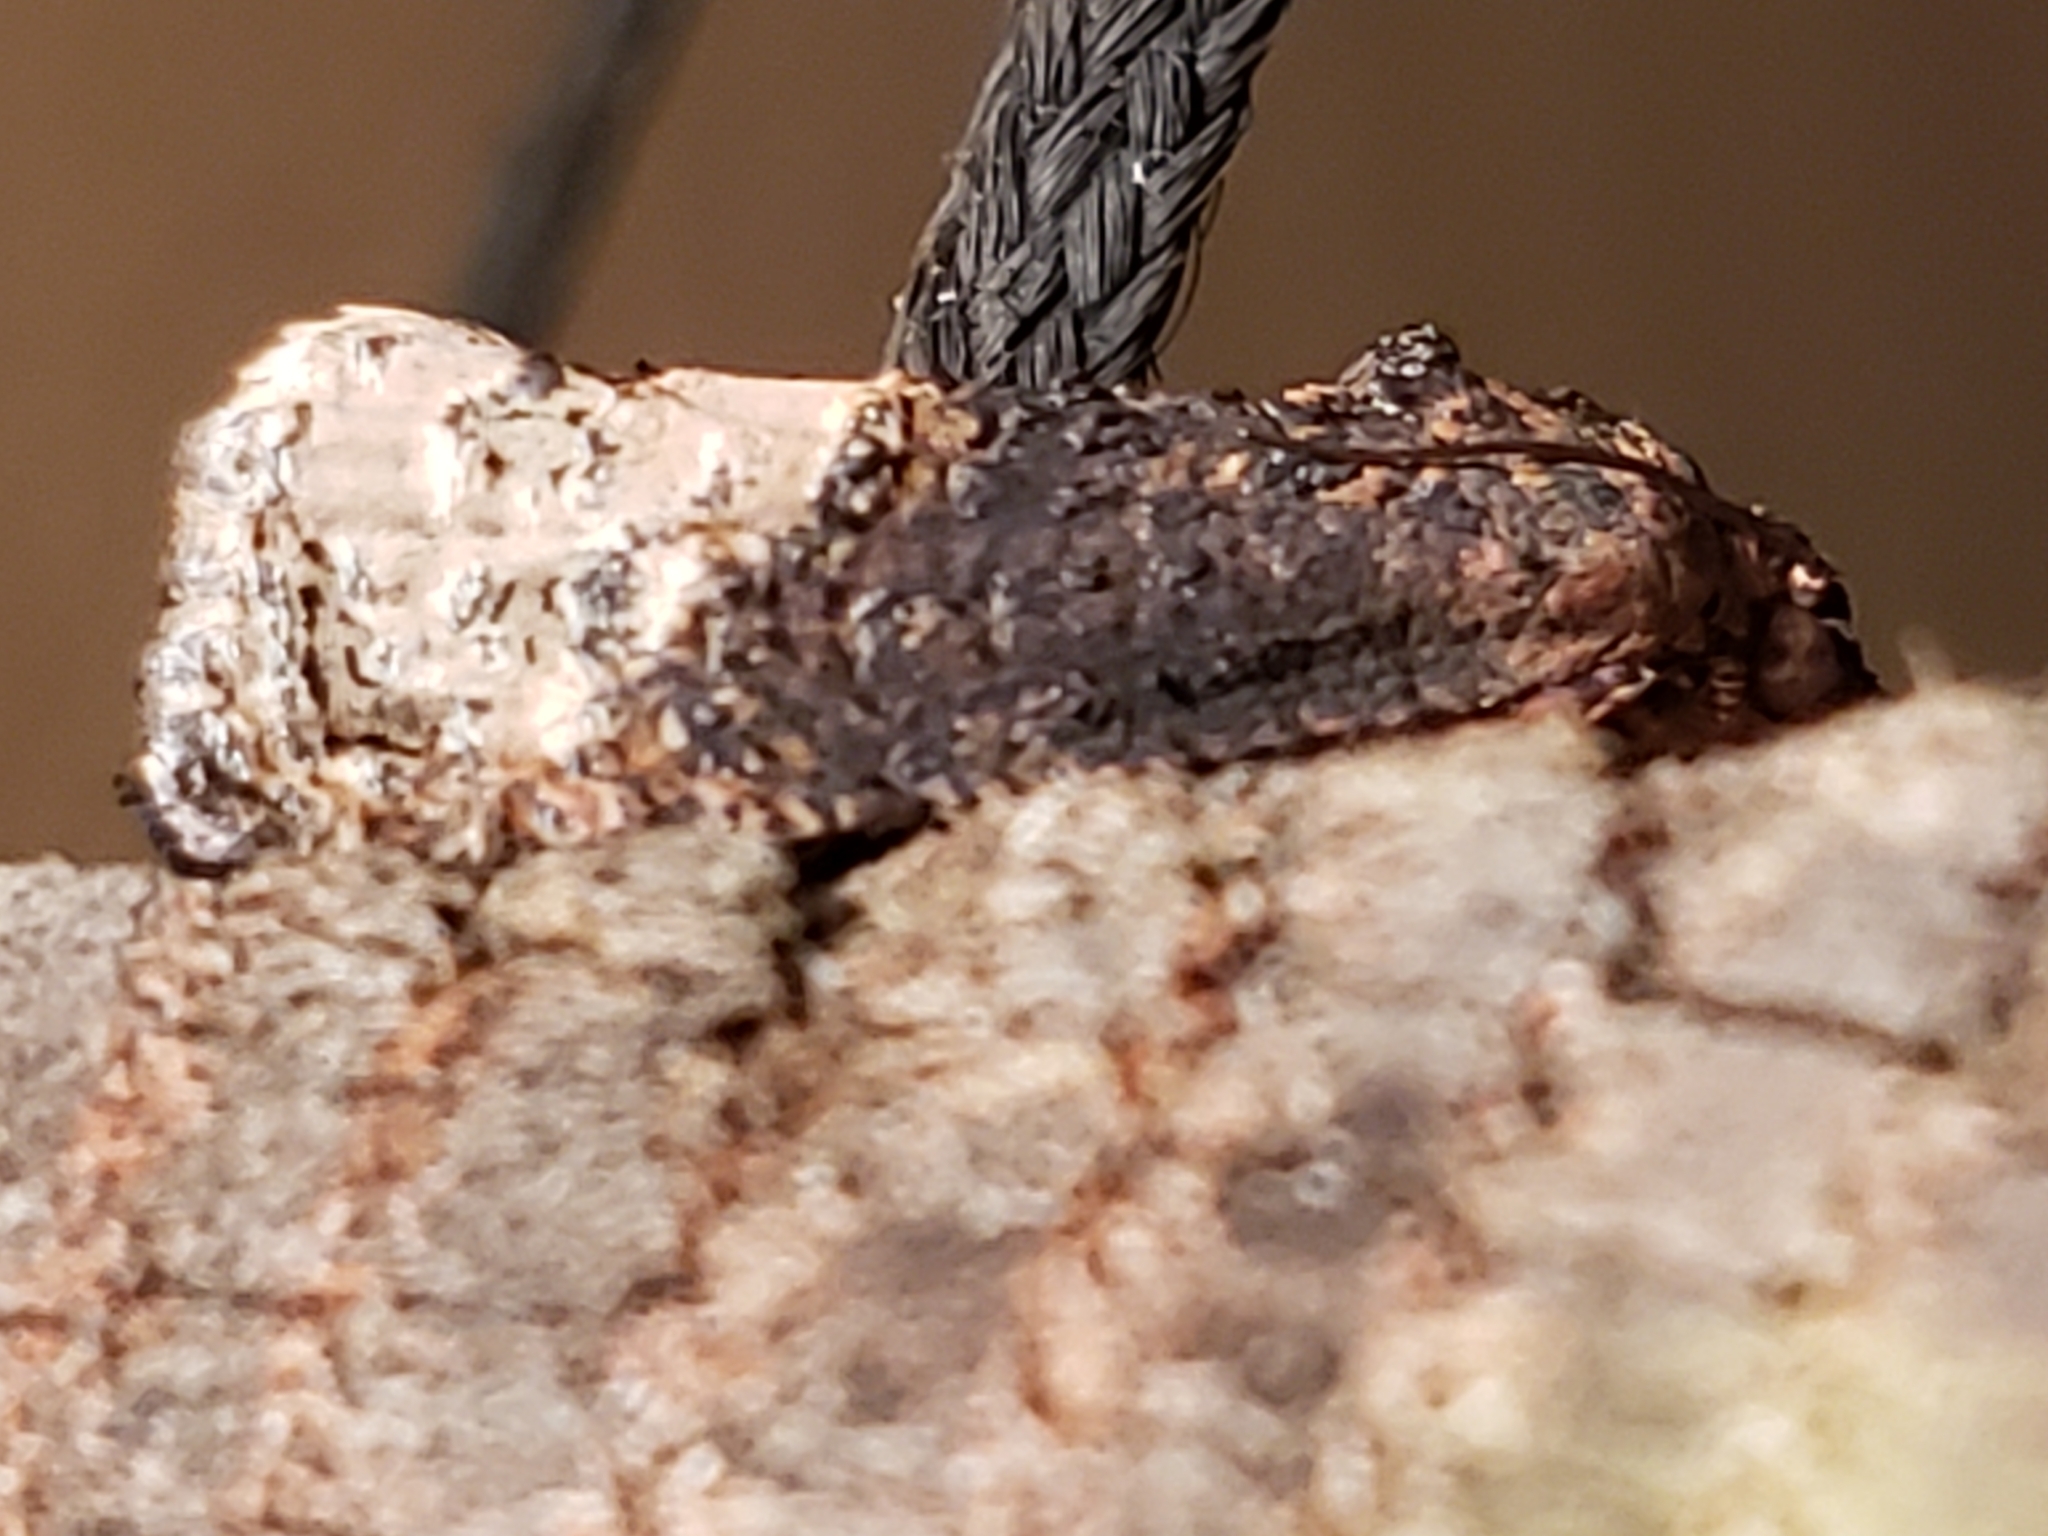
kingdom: Animalia
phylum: Arthropoda
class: Insecta
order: Lepidoptera
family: Tortricidae
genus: Ecdytolopha
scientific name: Ecdytolopha insiticiana
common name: Locust twig borer moth
